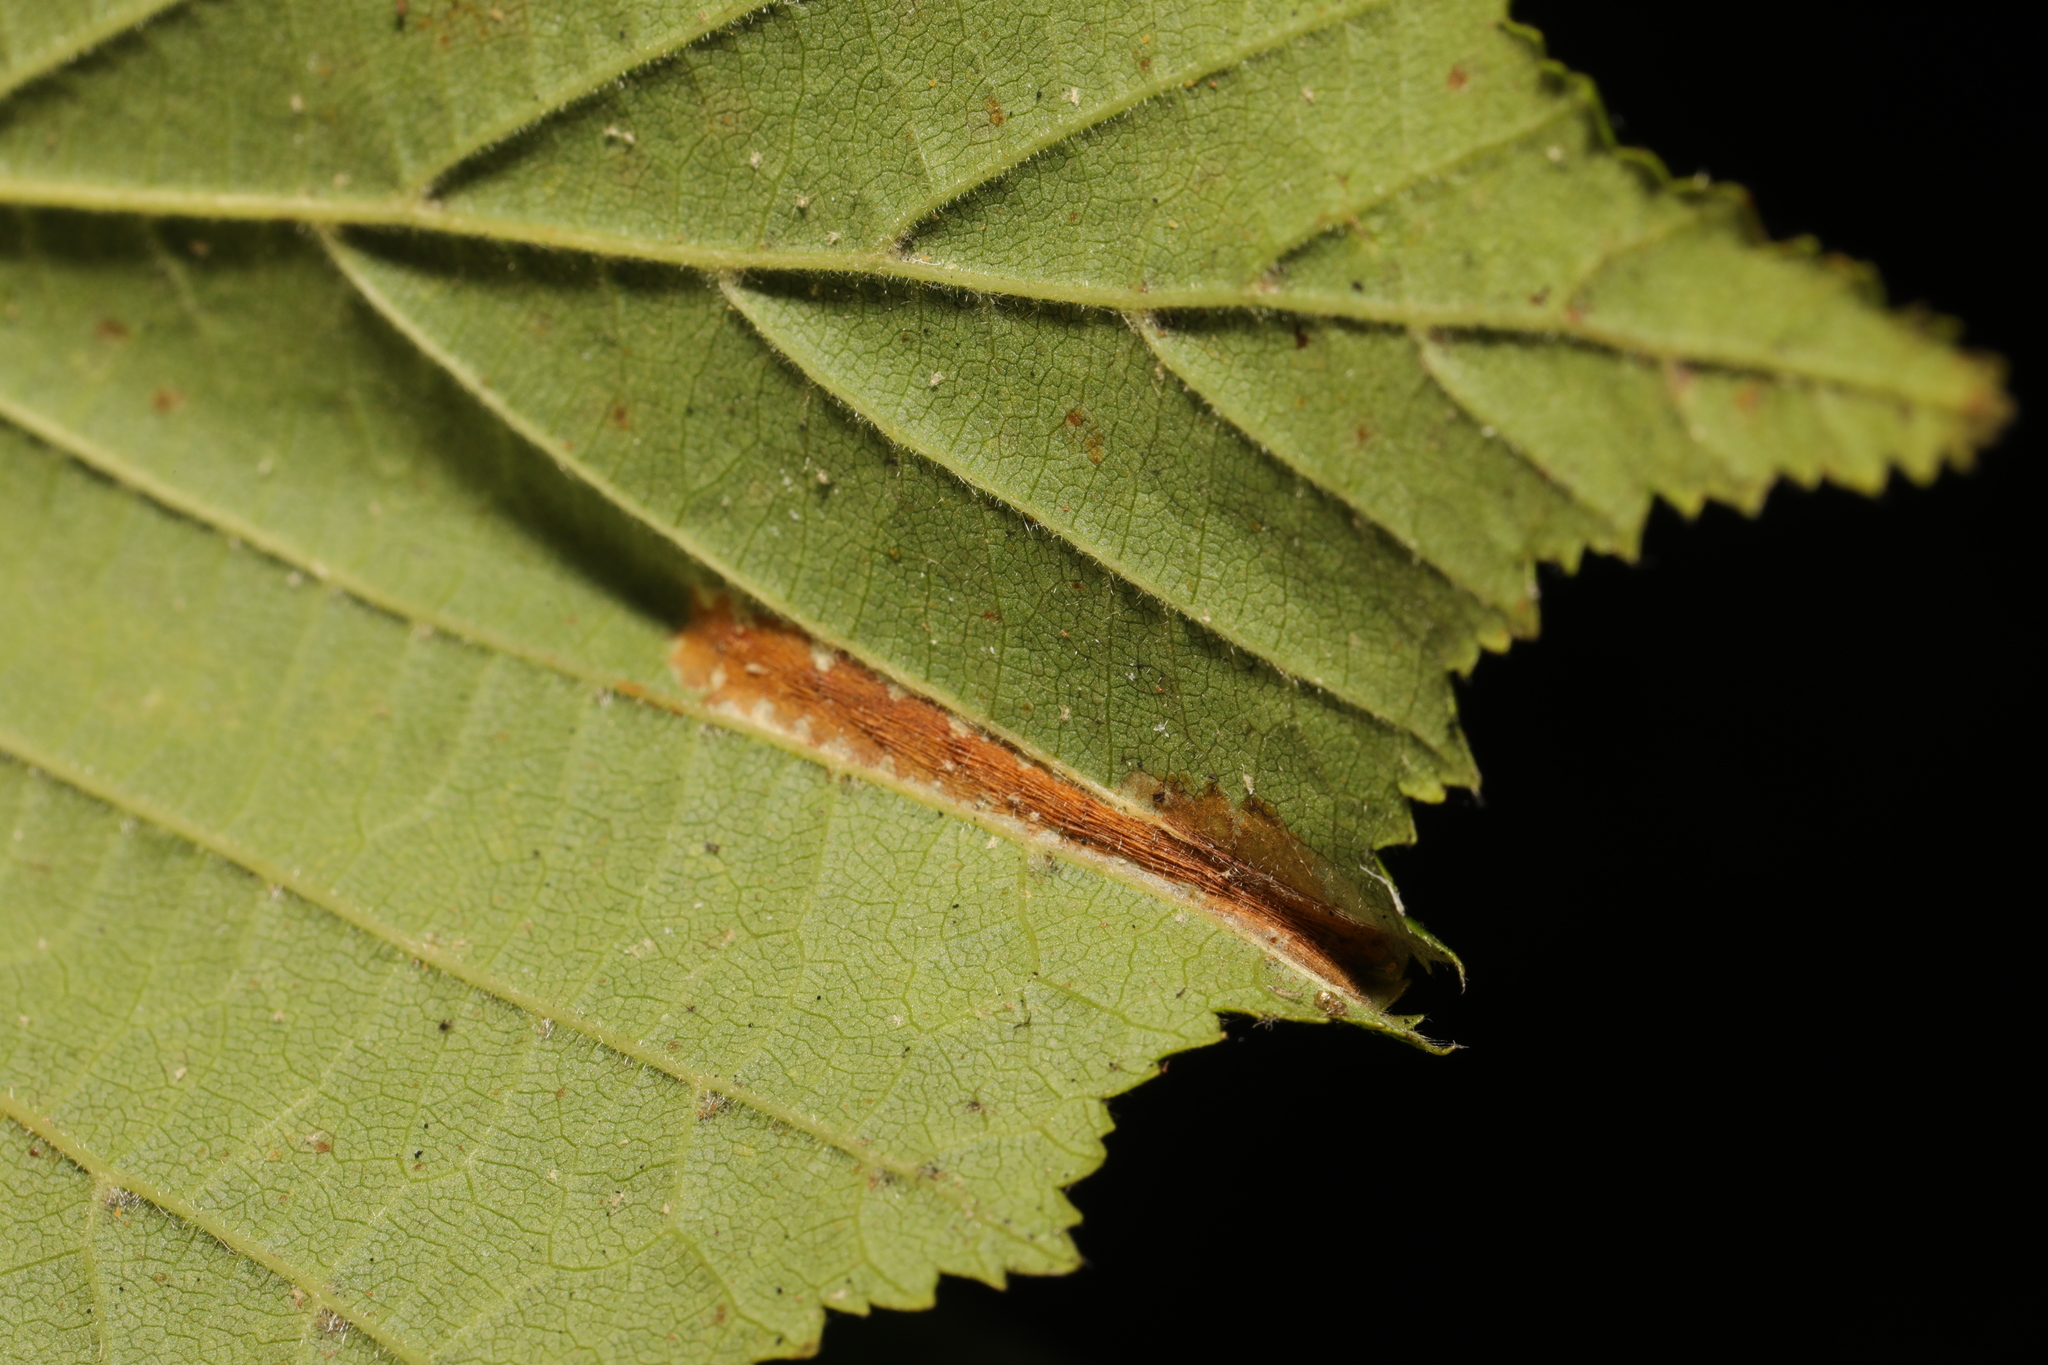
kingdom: Animalia
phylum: Arthropoda
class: Insecta
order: Lepidoptera
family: Gracillariidae
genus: Phyllonorycter
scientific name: Phyllonorycter nicellii
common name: Red hazel midget
